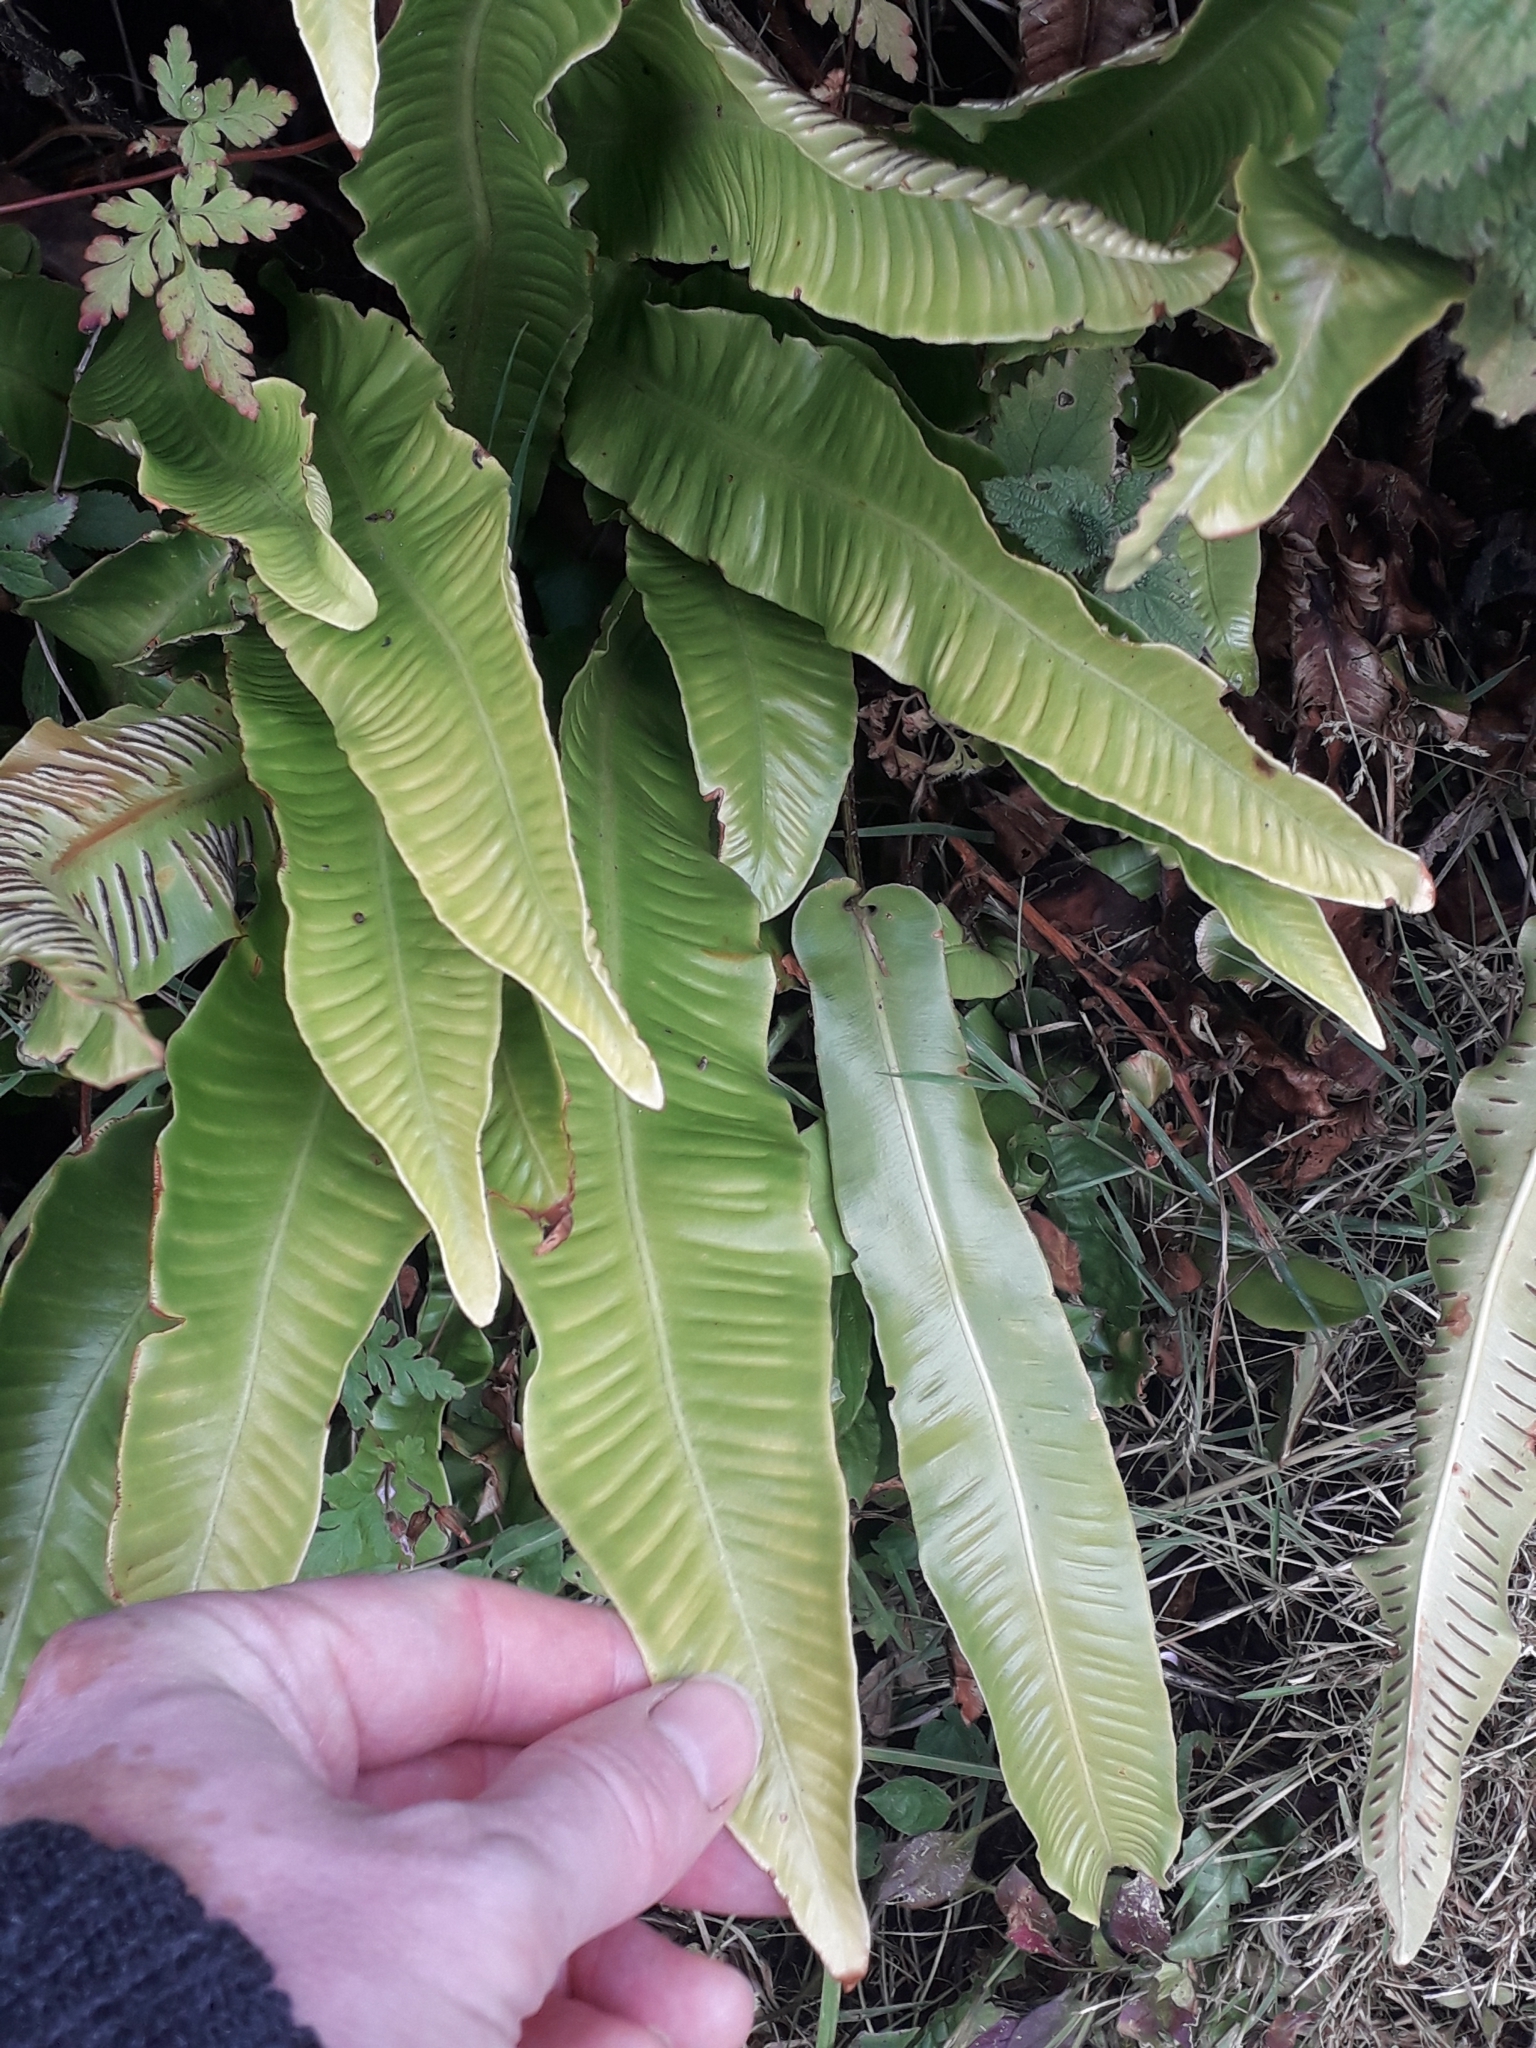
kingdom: Plantae
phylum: Tracheophyta
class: Polypodiopsida
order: Polypodiales
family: Aspleniaceae
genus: Asplenium
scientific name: Asplenium scolopendrium
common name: Hart's-tongue fern
